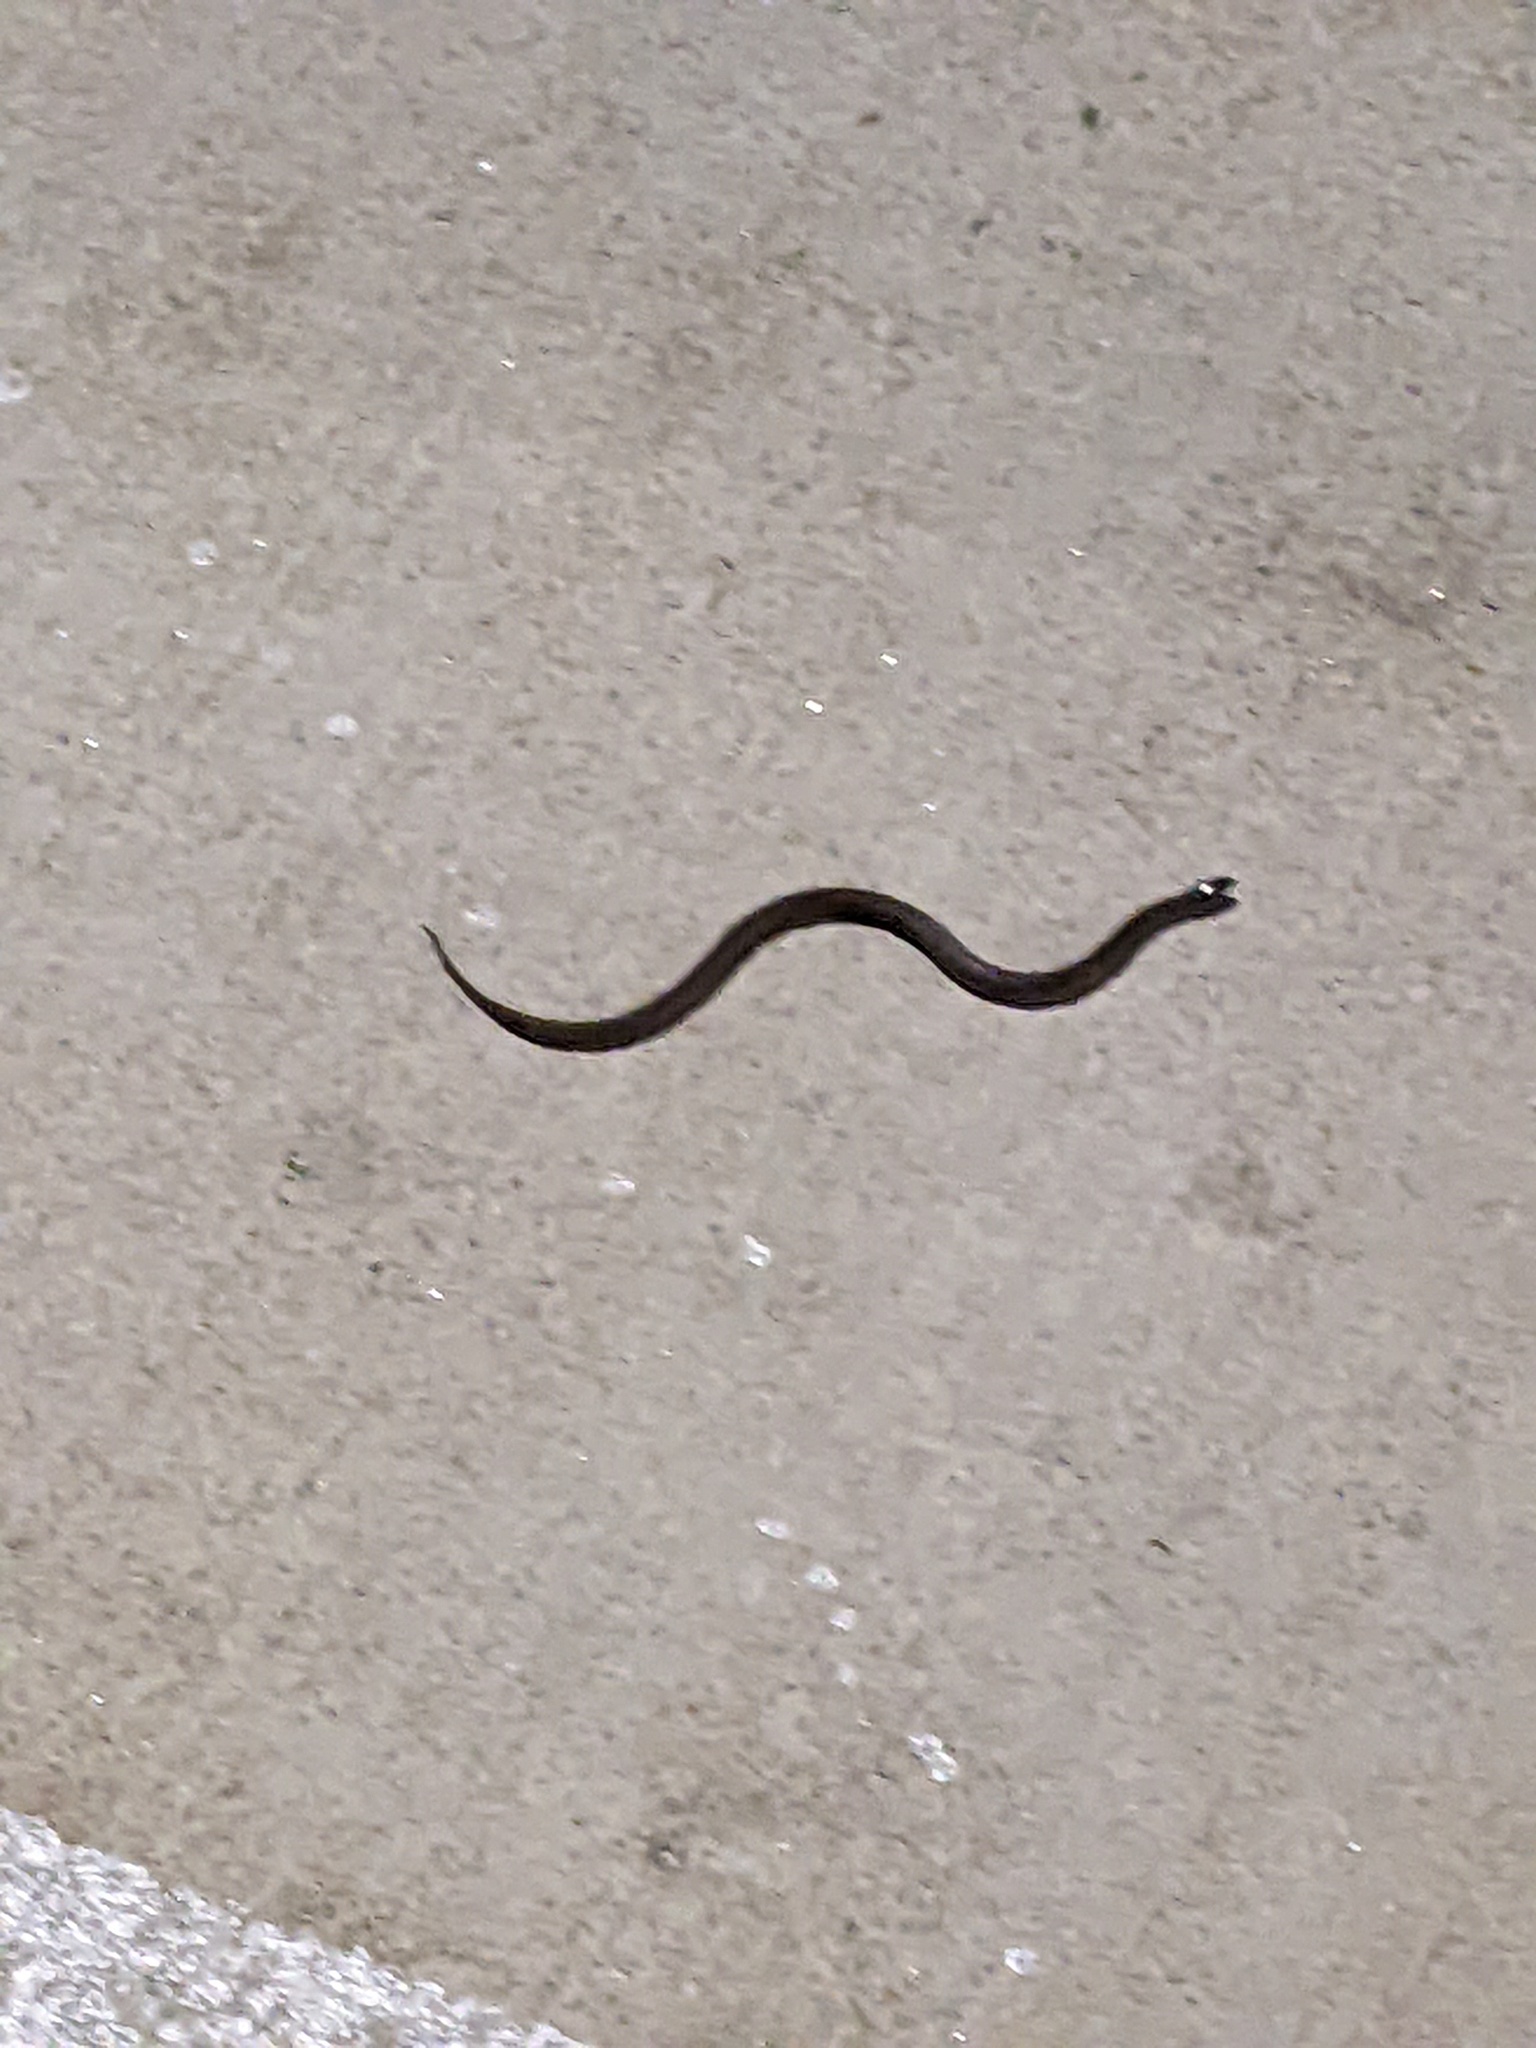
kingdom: Animalia
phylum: Chordata
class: Squamata
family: Colubridae
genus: Haldea
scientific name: Haldea striatula
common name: Rough earth snake
